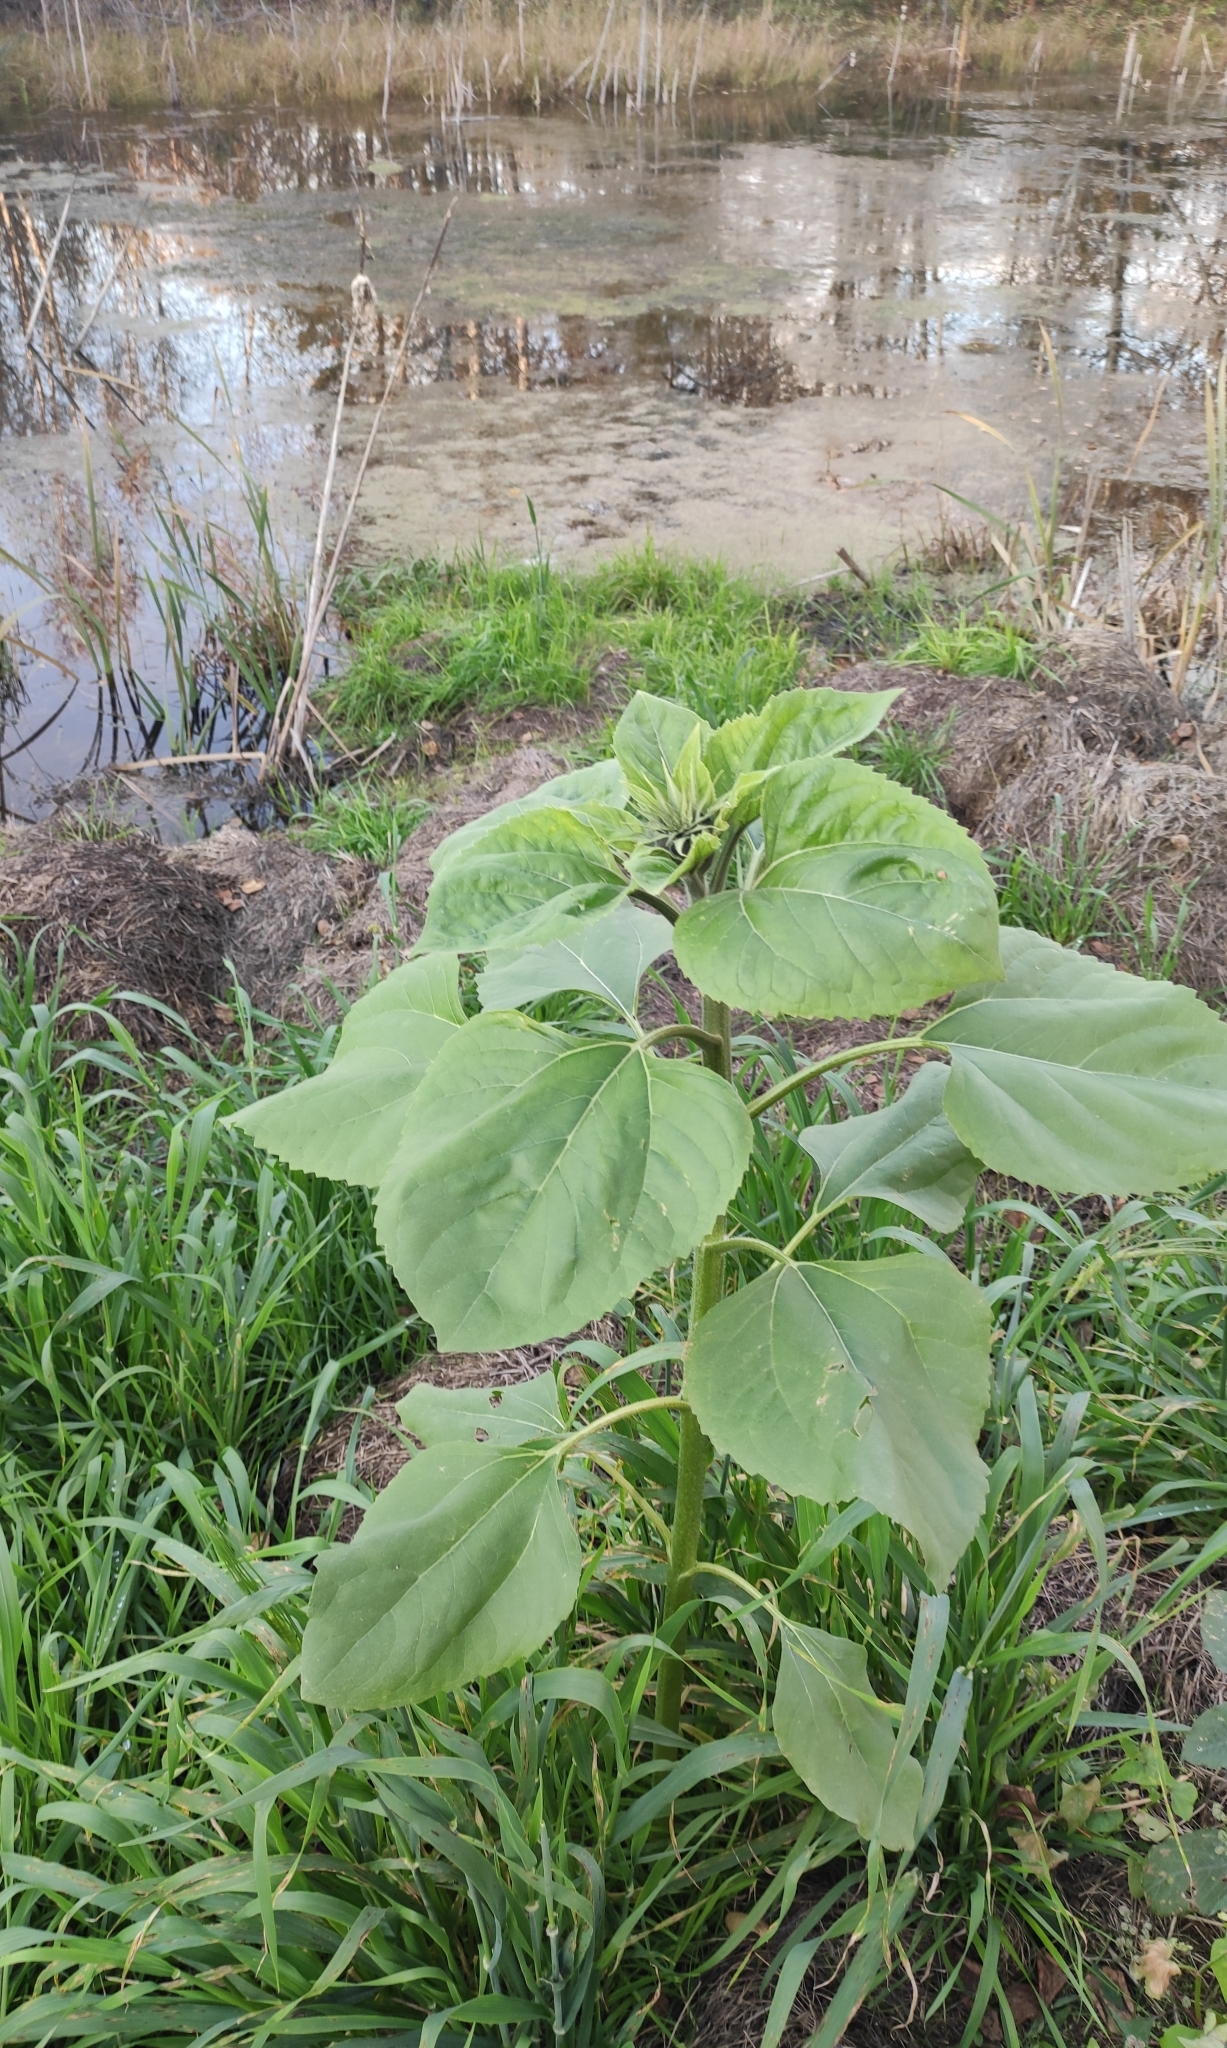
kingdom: Plantae
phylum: Tracheophyta
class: Magnoliopsida
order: Asterales
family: Asteraceae
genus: Helianthus
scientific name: Helianthus annuus
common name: Sunflower
